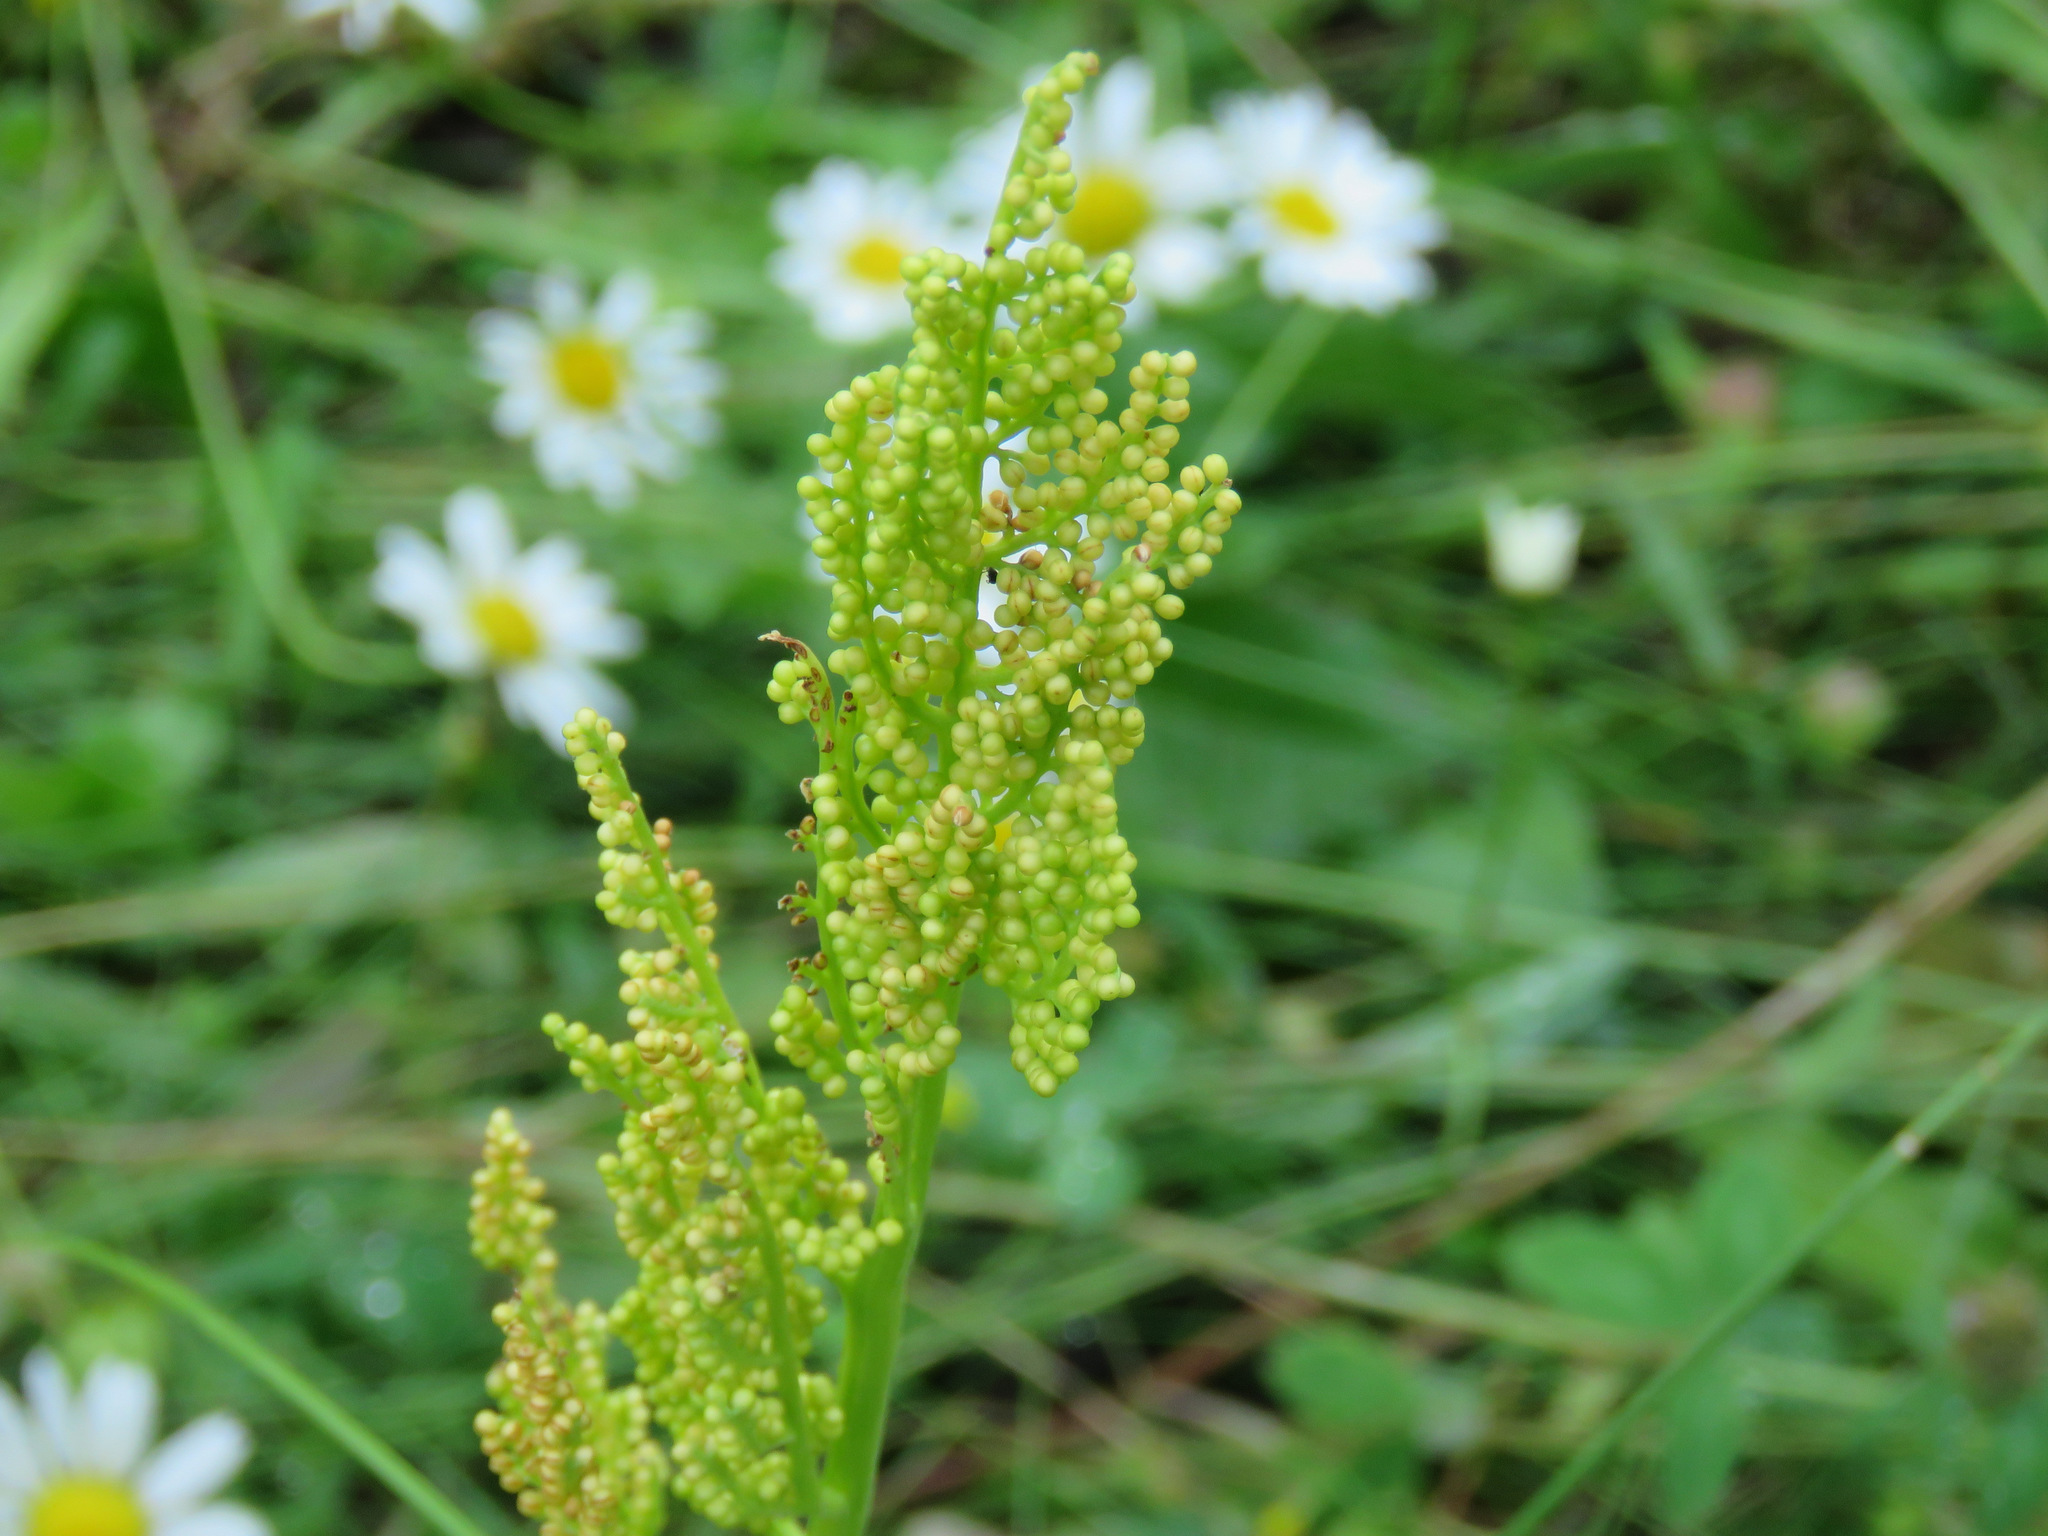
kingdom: Plantae
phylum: Tracheophyta
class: Polypodiopsida
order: Ophioglossales
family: Ophioglossaceae
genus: Botrypus
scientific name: Botrypus virginianus
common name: Common grapefern
